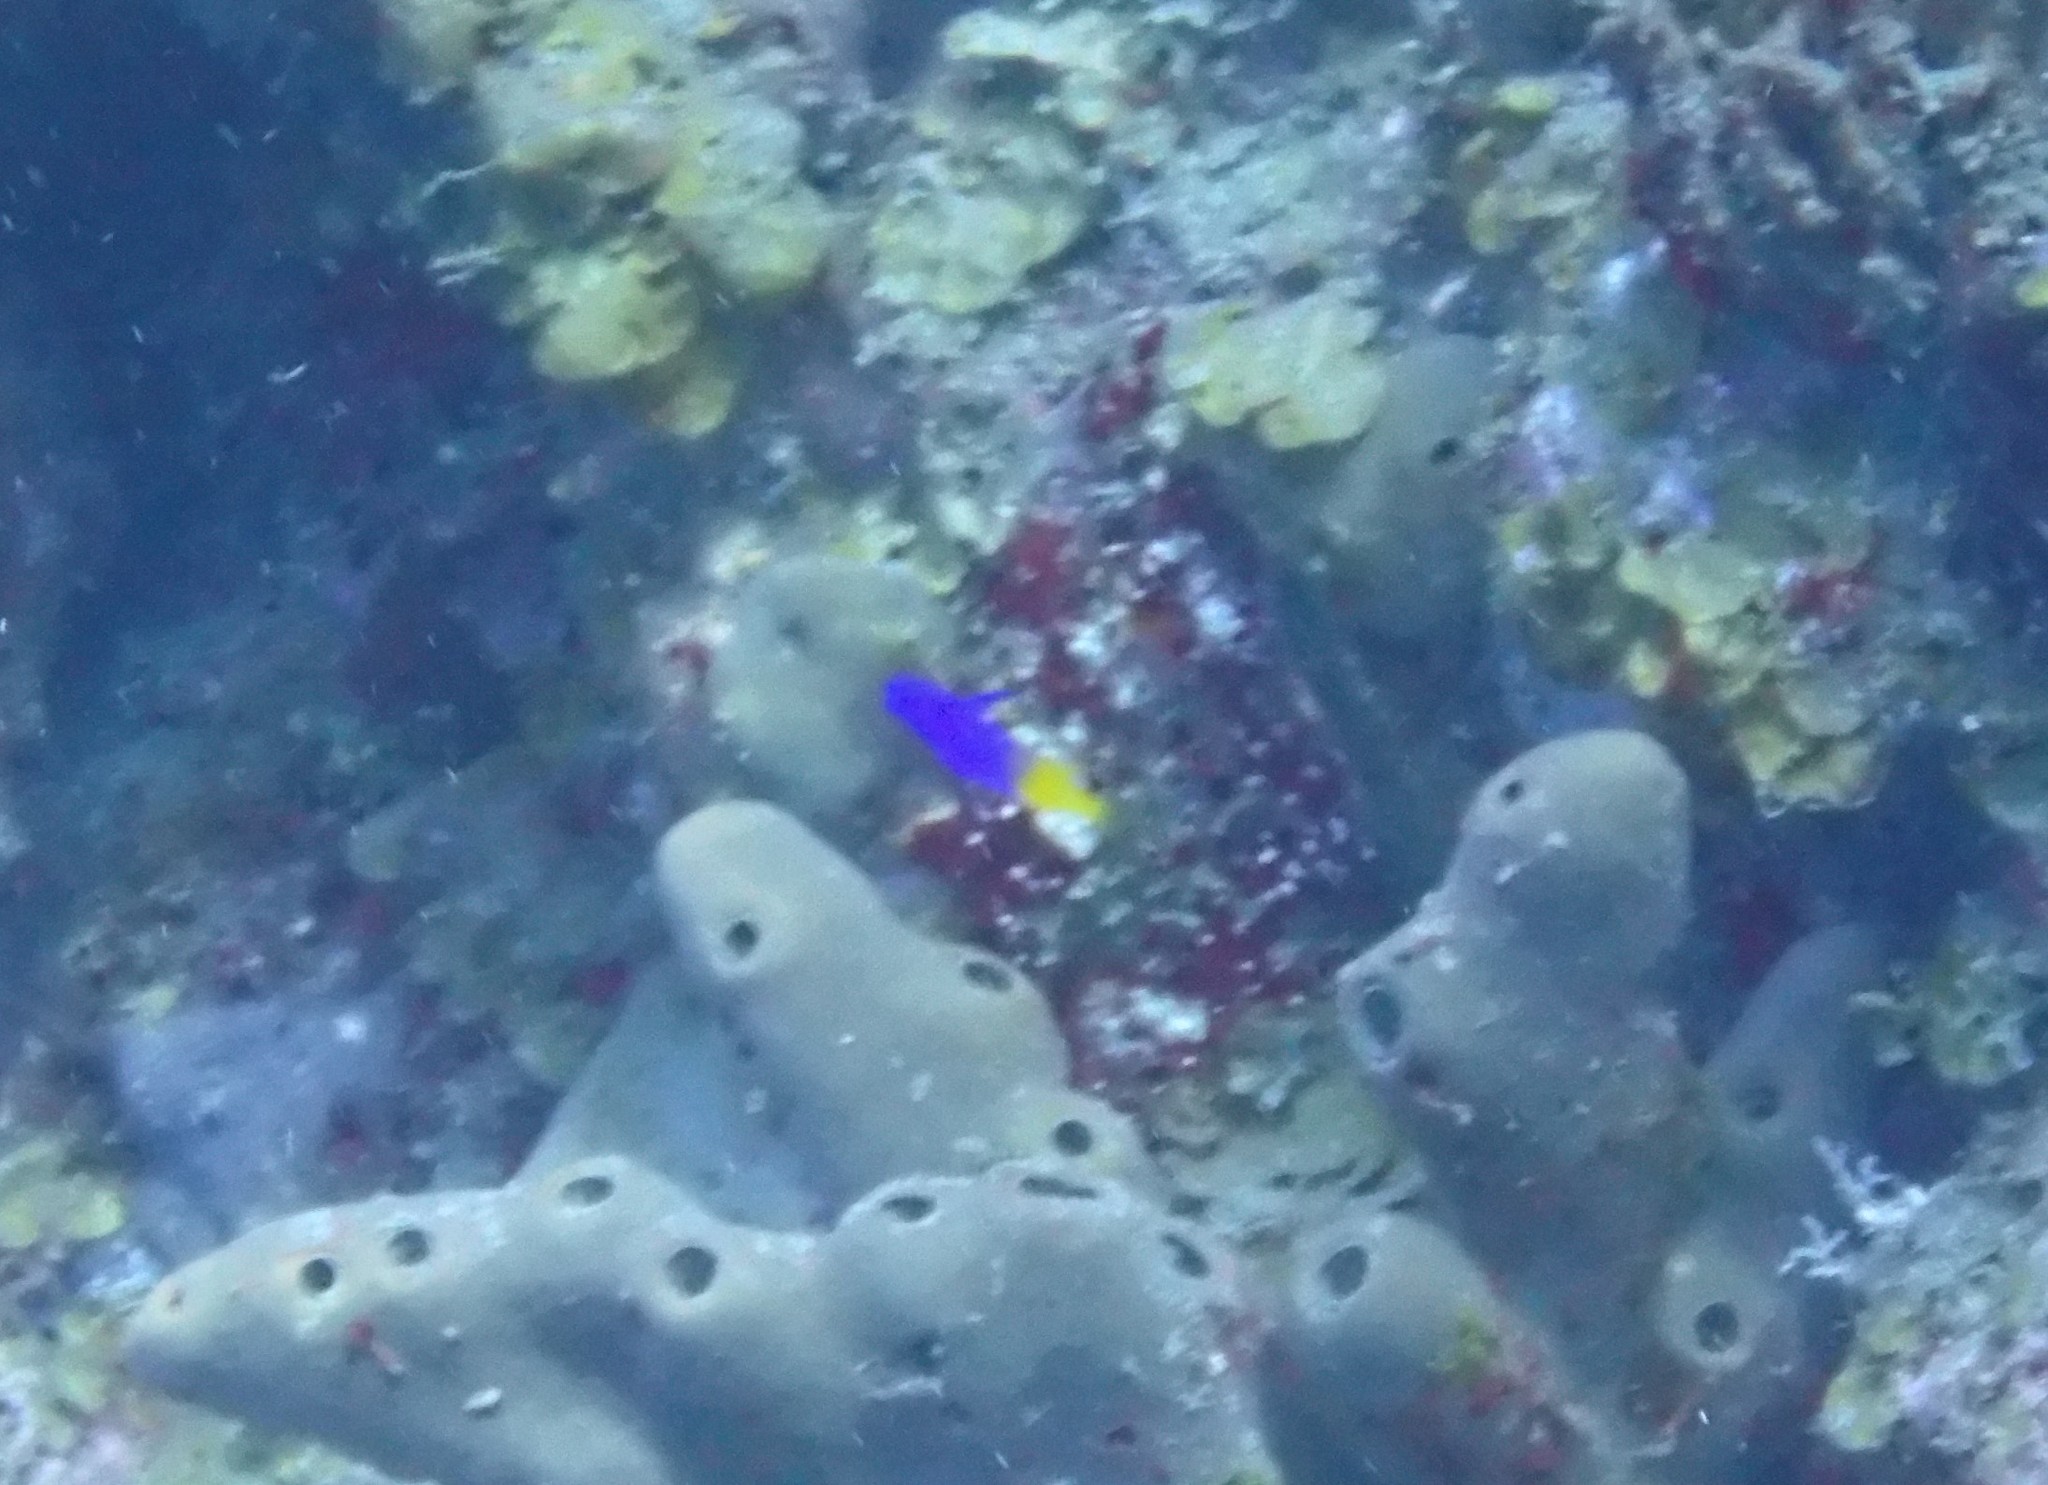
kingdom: Animalia
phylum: Chordata
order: Perciformes
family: Grammatidae
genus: Gramma
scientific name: Gramma loreto
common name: Fairy basslet
